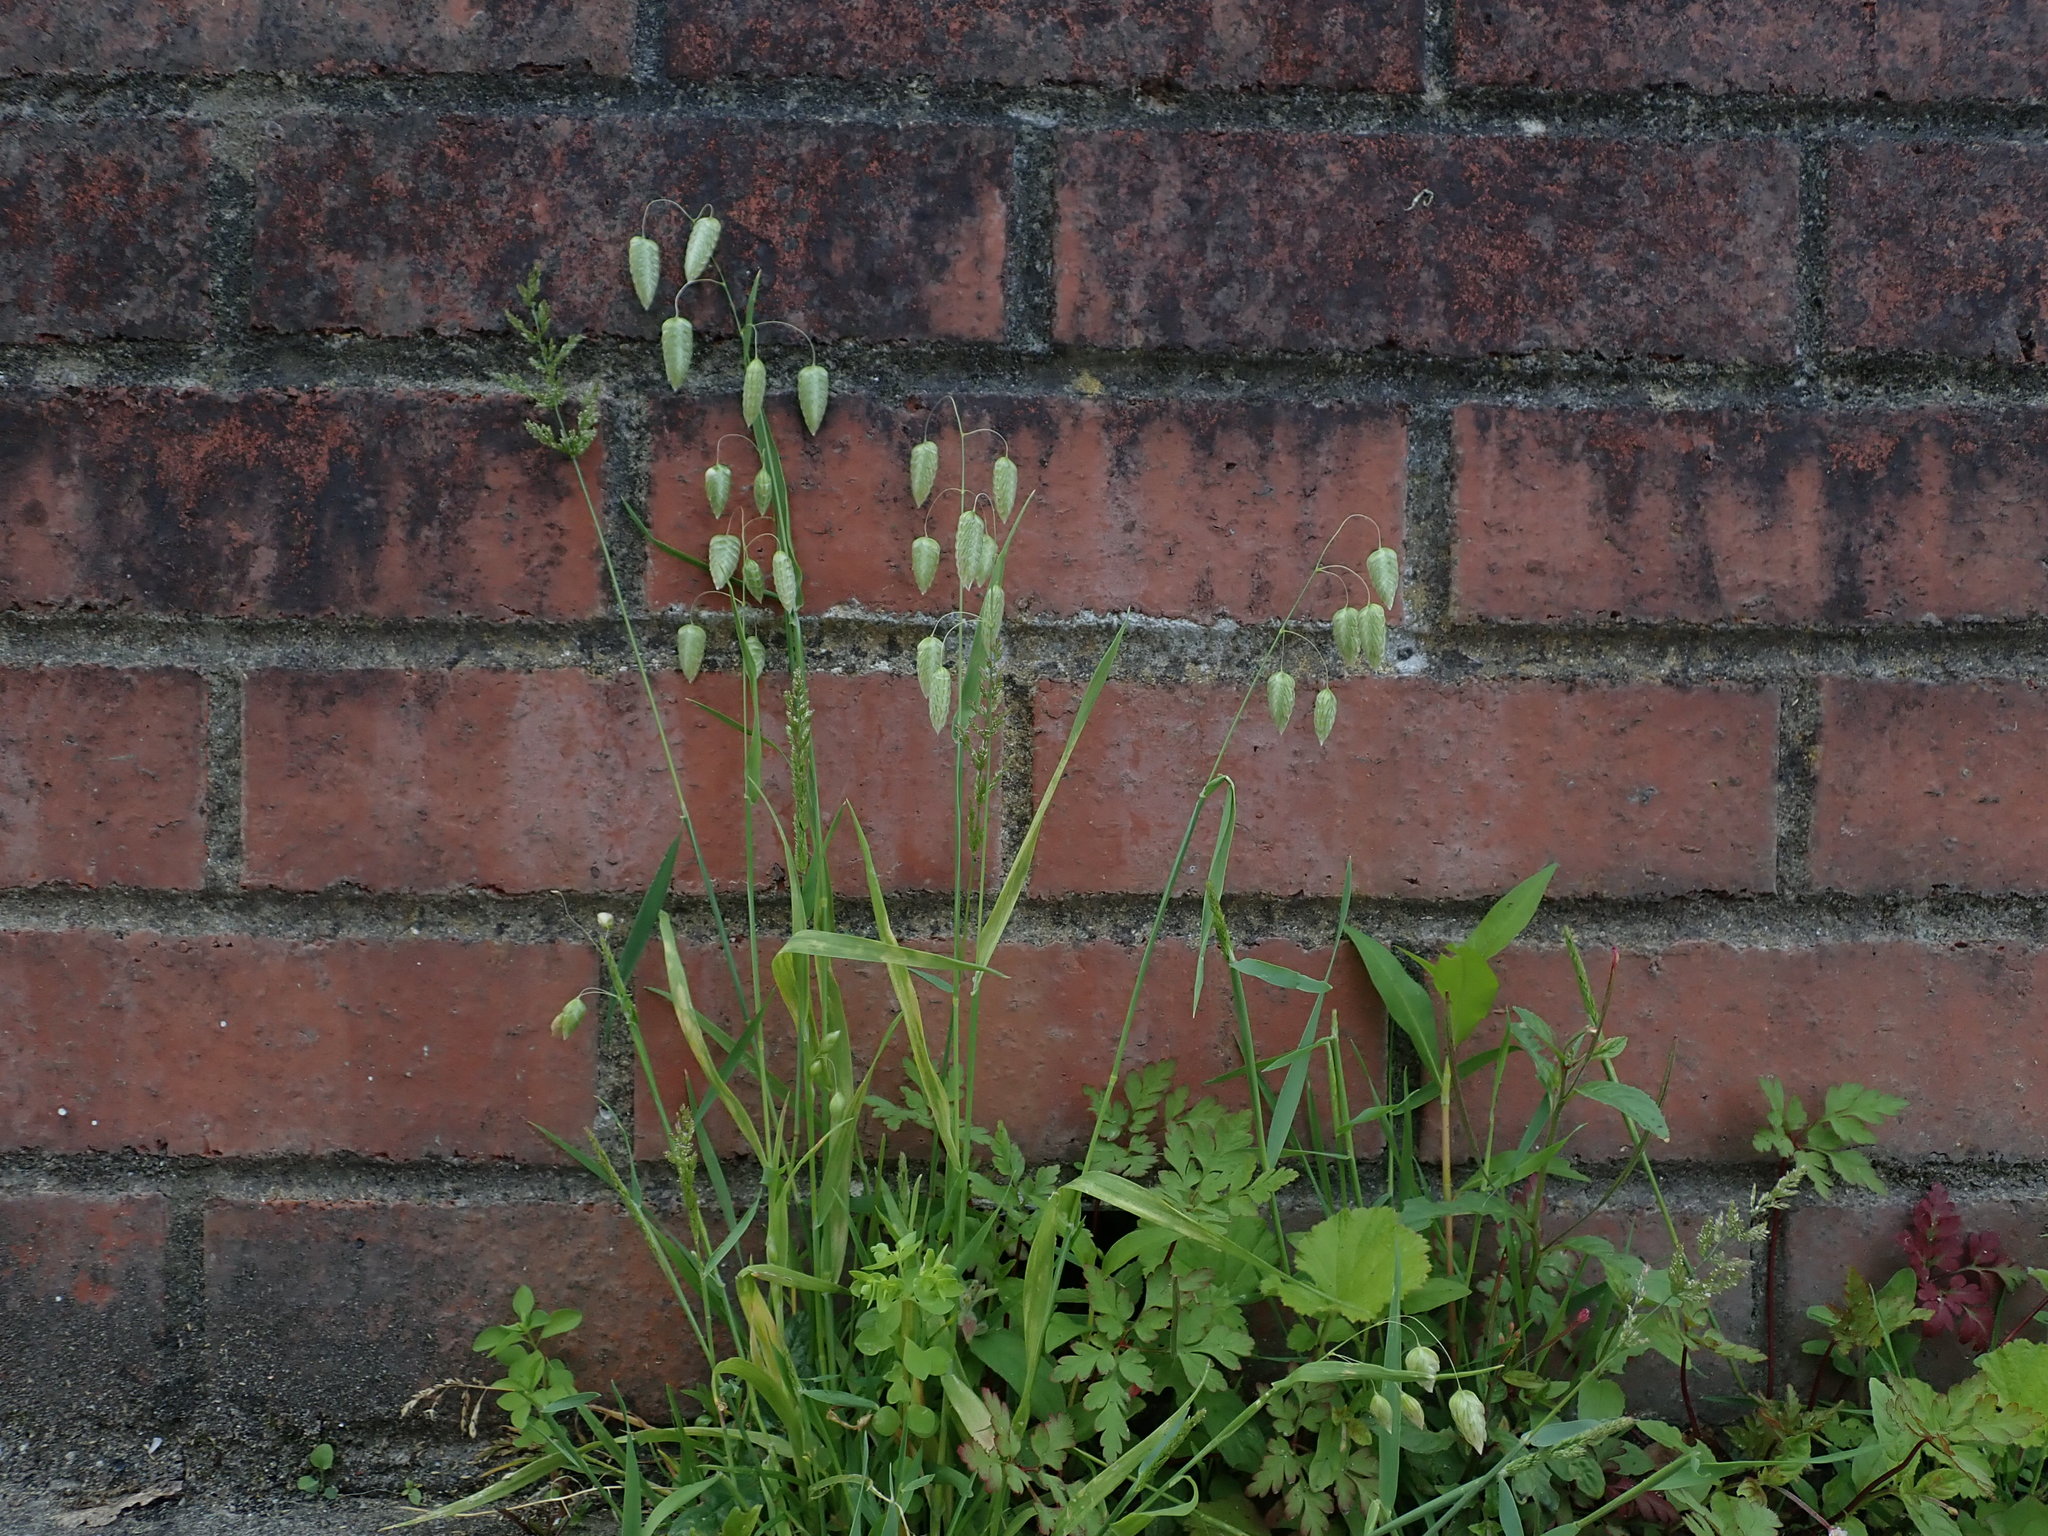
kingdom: Plantae
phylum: Tracheophyta
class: Liliopsida
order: Poales
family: Poaceae
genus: Briza
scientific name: Briza maxima
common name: Big quakinggrass
